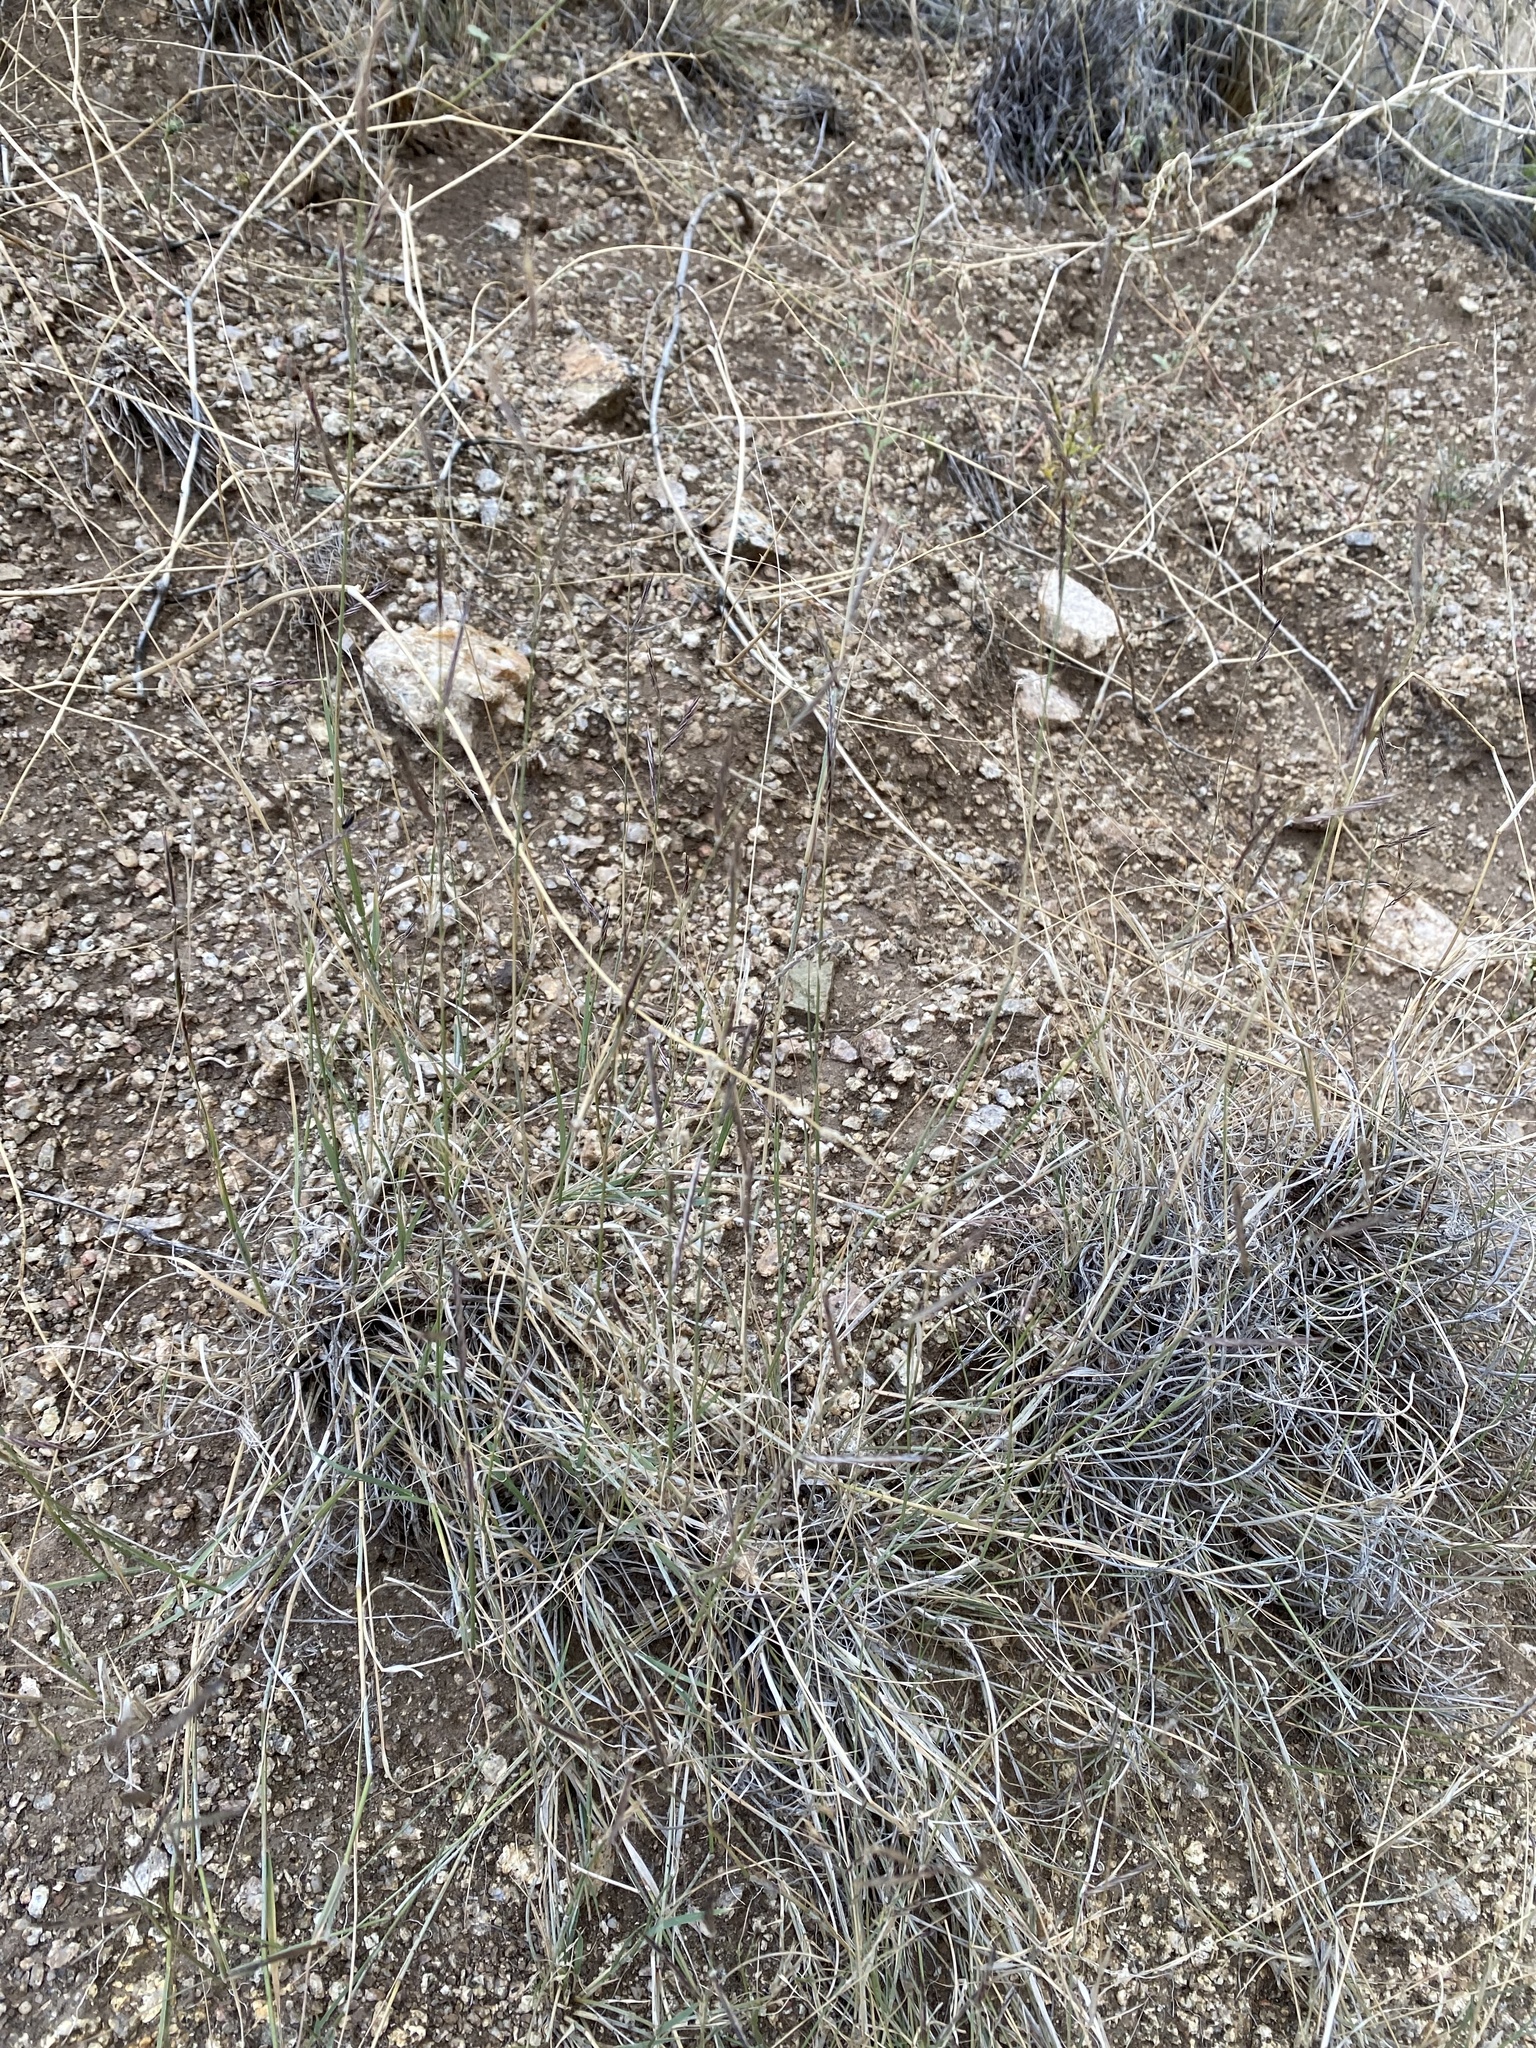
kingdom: Plantae
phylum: Tracheophyta
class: Liliopsida
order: Poales
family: Poaceae
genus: Bouteloua
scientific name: Bouteloua eriopoda
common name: Woolly foot grama
